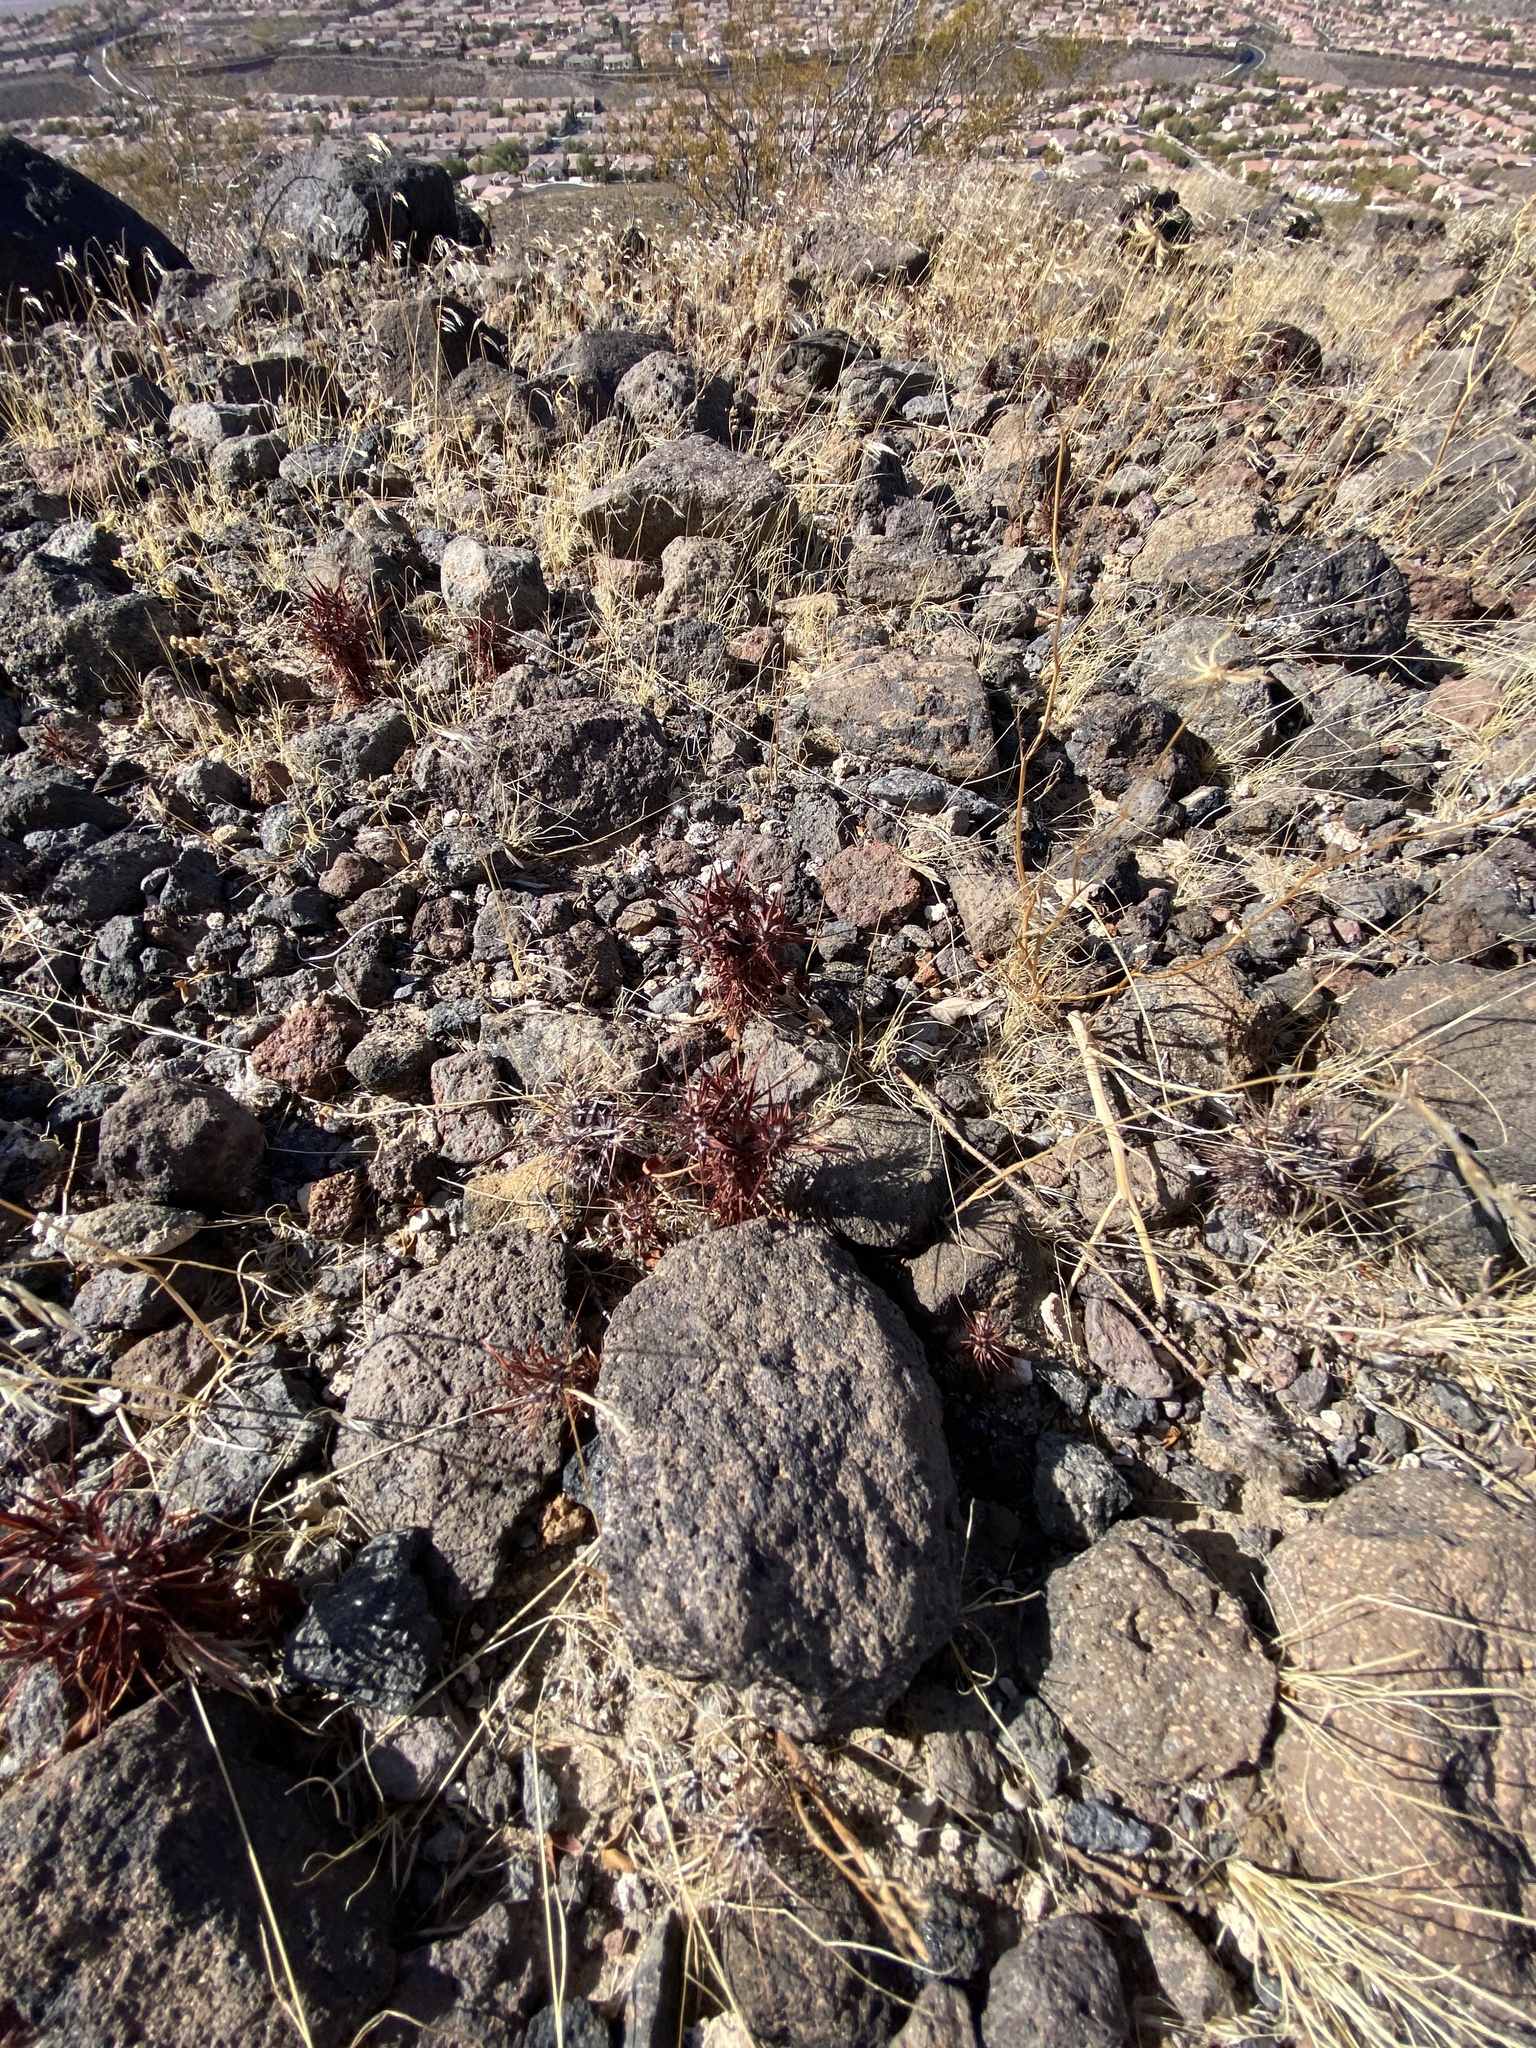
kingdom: Plantae
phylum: Tracheophyta
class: Magnoliopsida
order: Caryophyllales
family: Polygonaceae
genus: Chorizanthe
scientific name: Chorizanthe rigida
